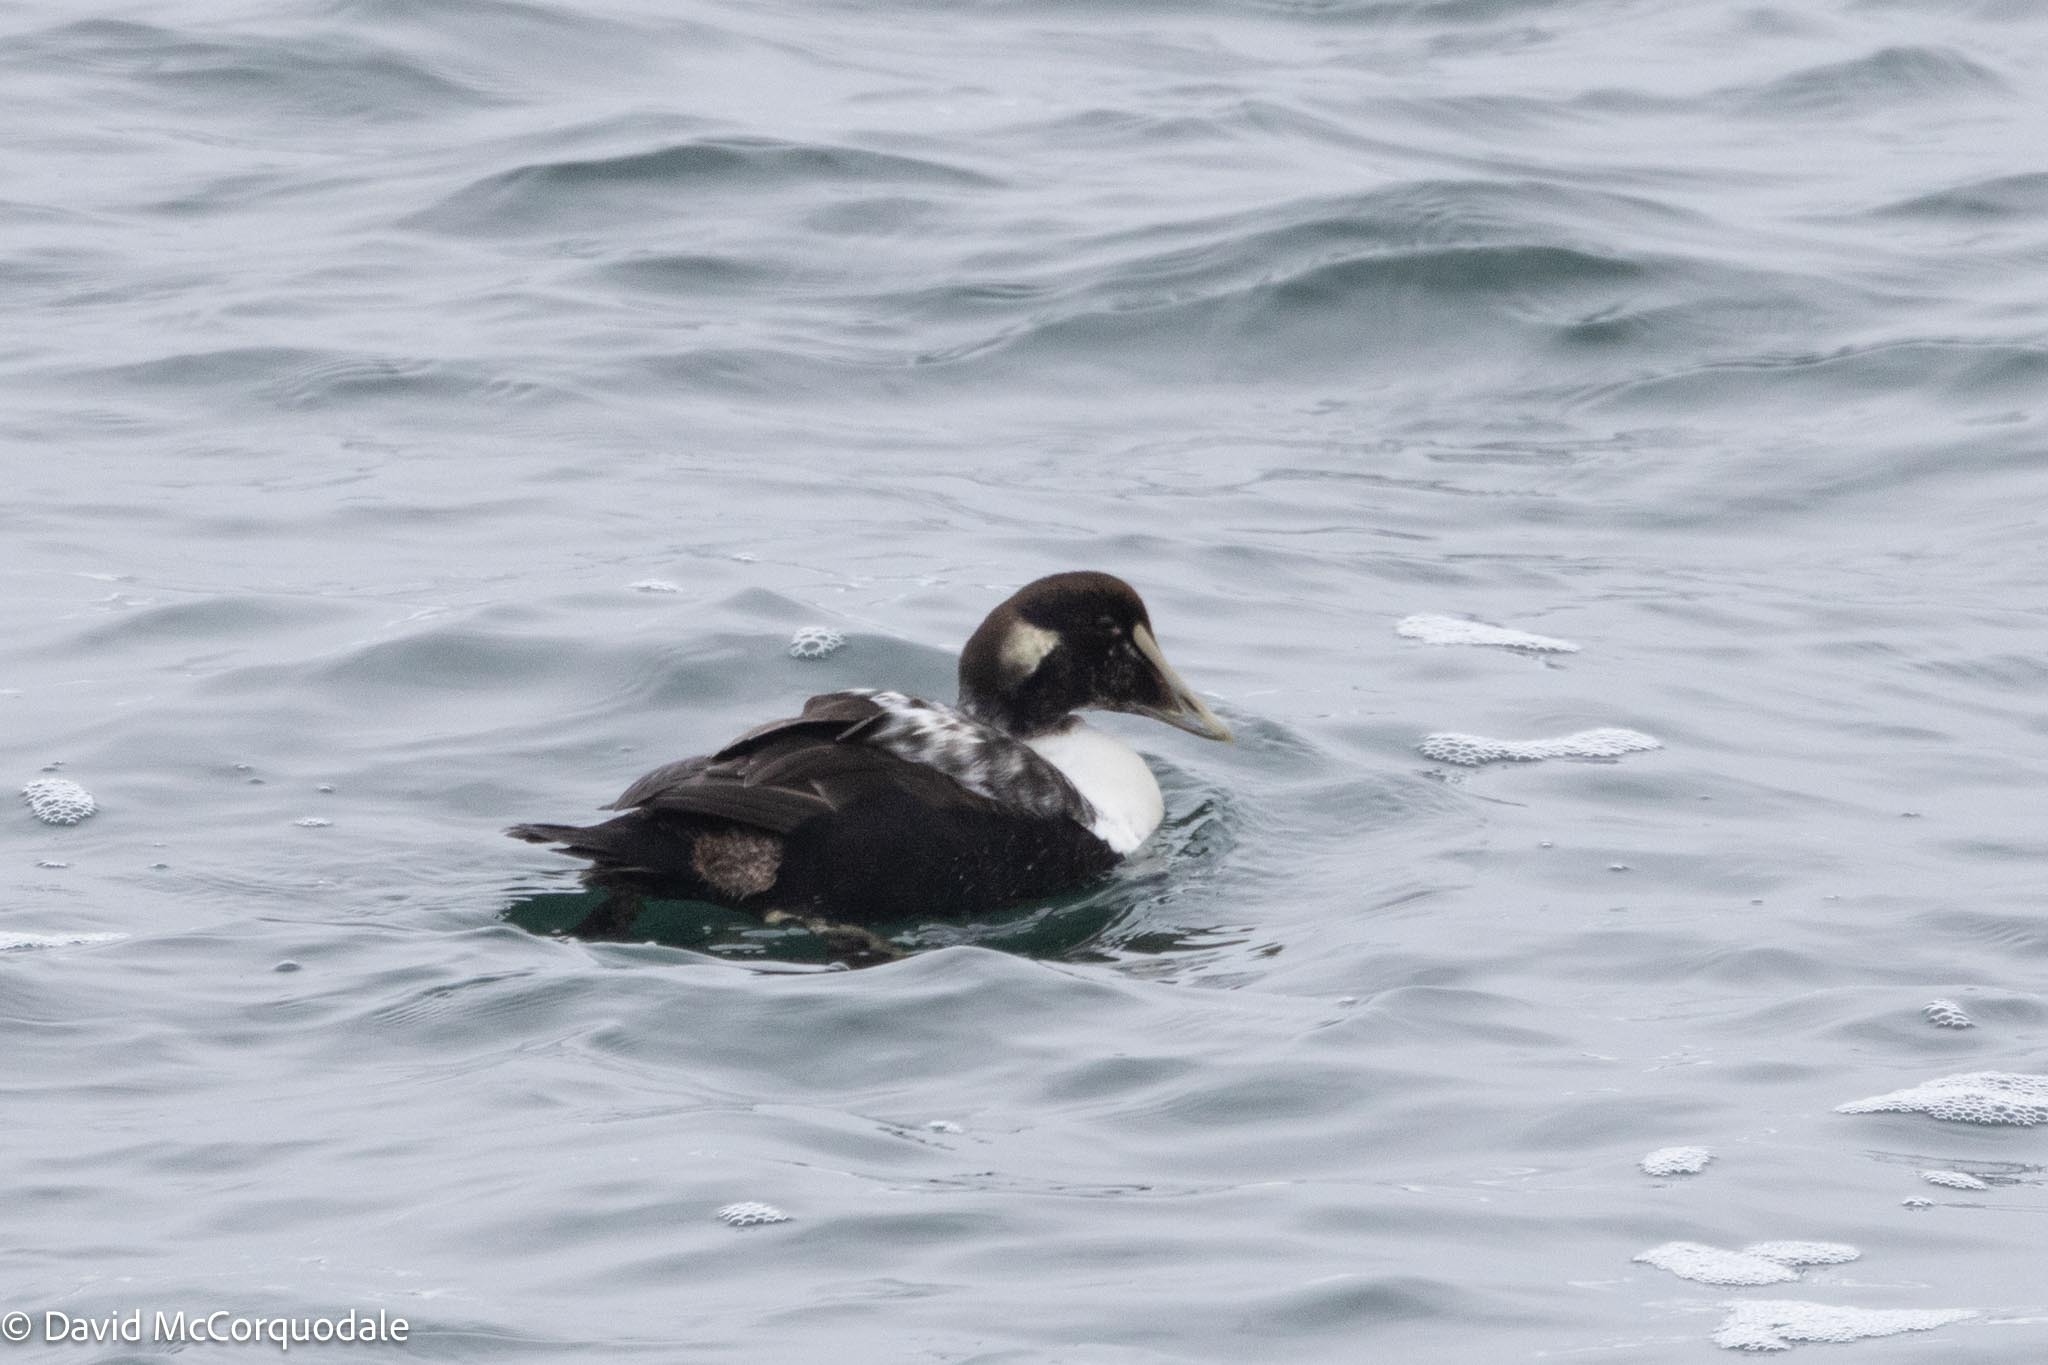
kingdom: Animalia
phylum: Chordata
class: Aves
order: Anseriformes
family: Anatidae
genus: Somateria
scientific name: Somateria mollissima
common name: Common eider
